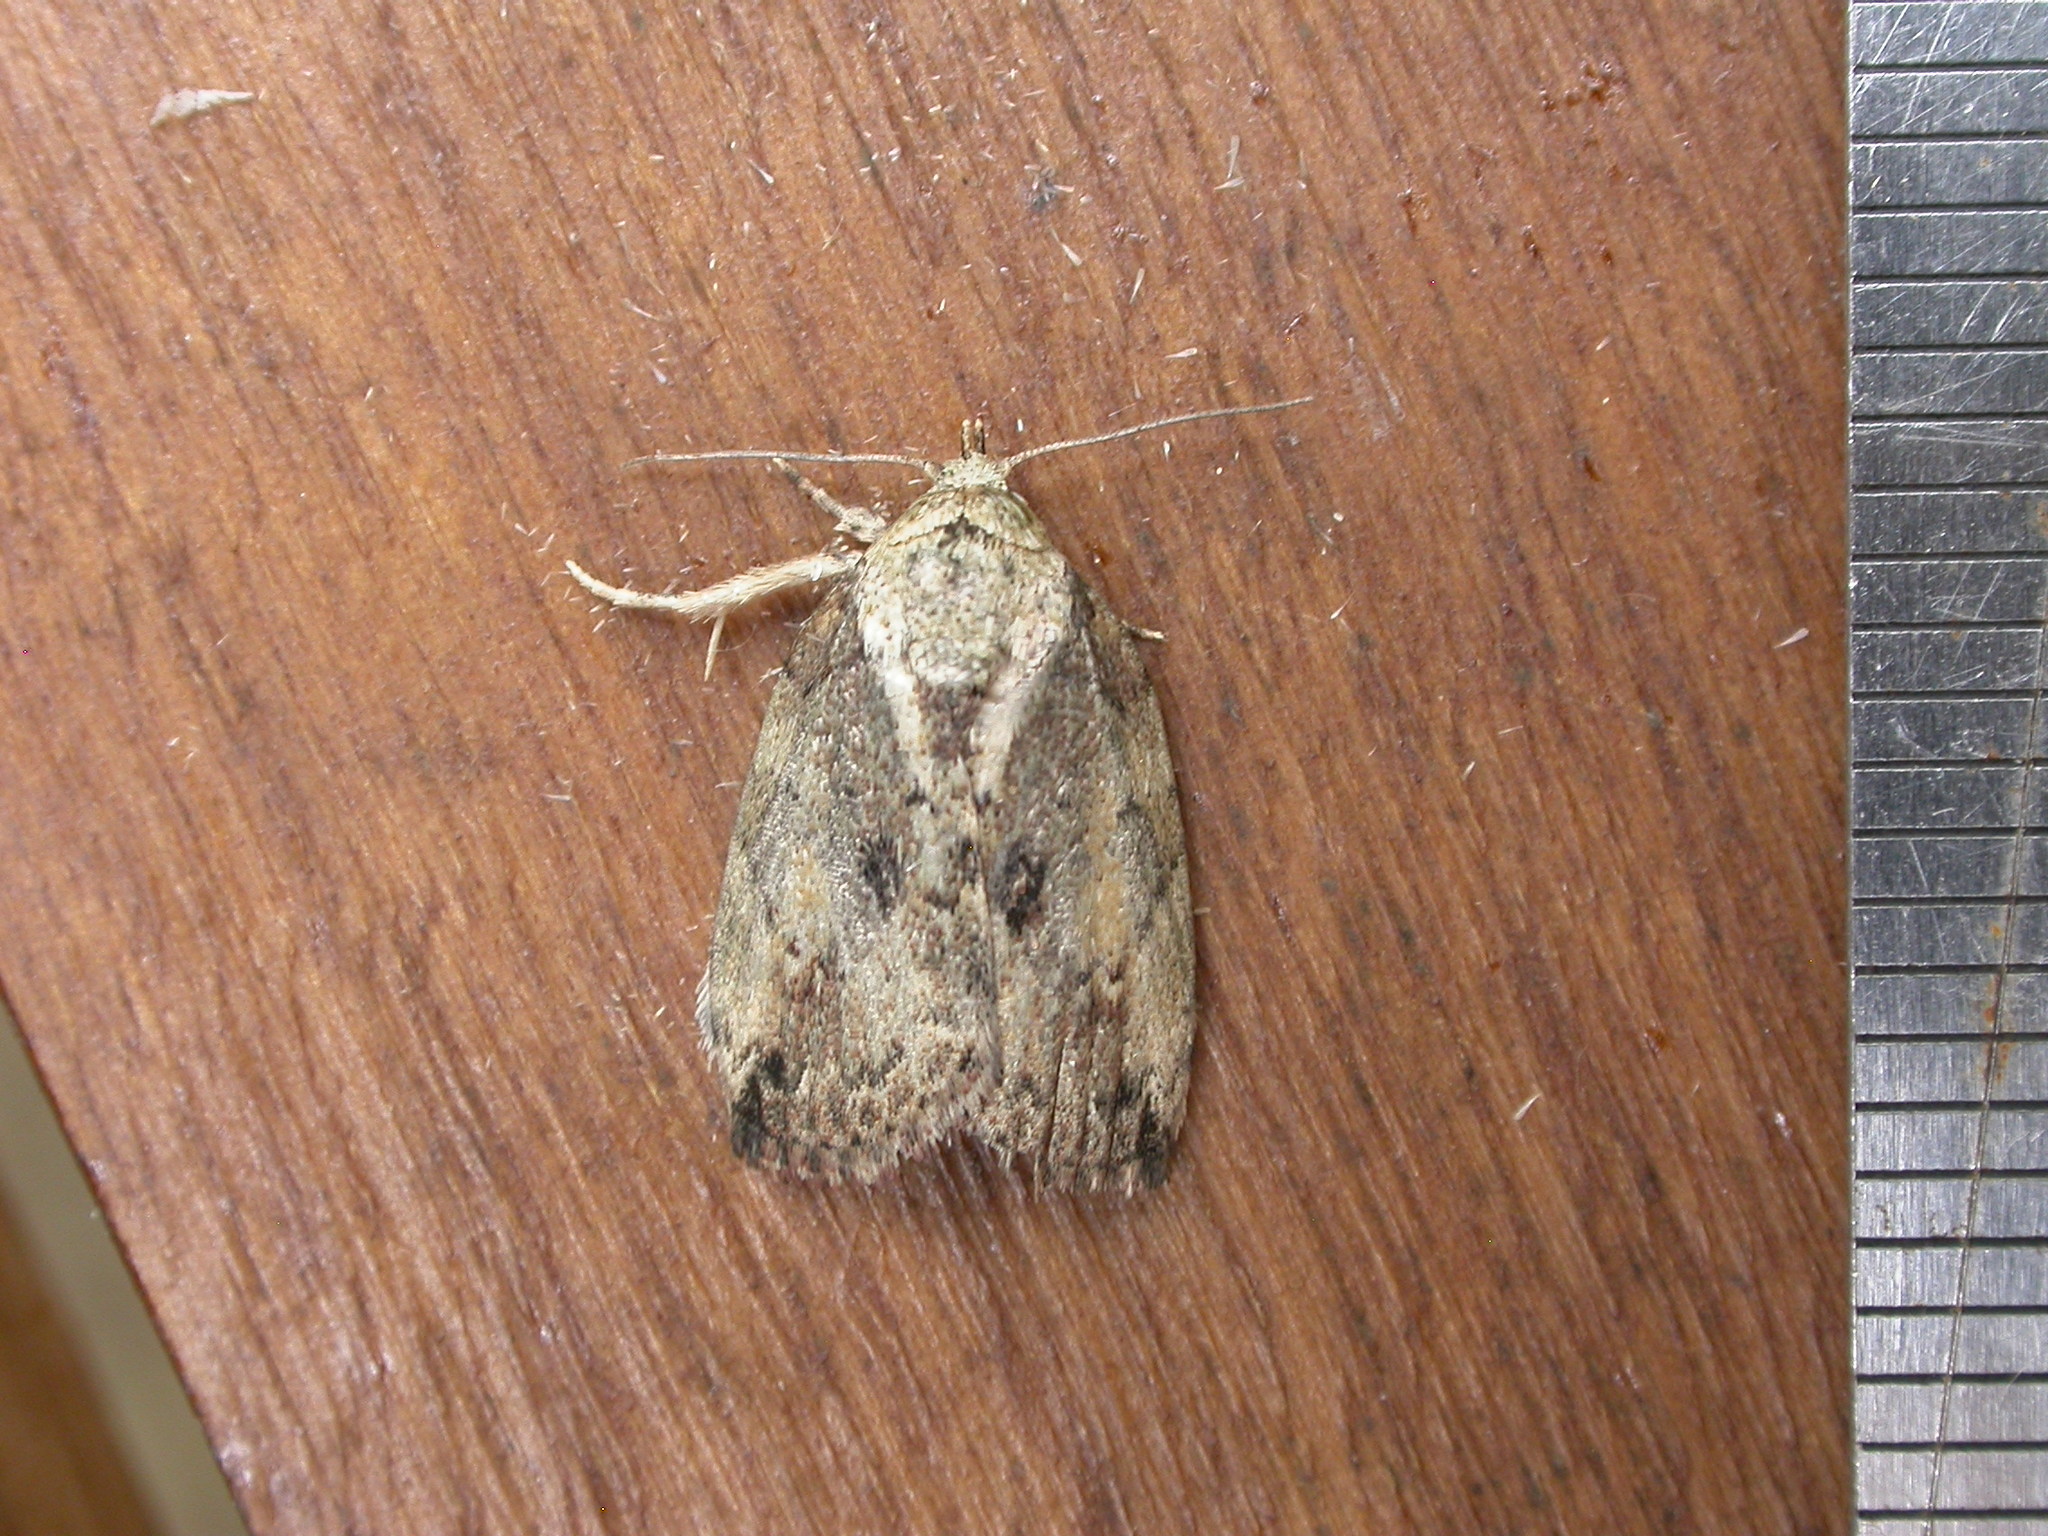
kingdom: Animalia
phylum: Arthropoda
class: Insecta
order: Lepidoptera
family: Nolidae
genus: Etanna
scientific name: Etanna breviuscula
